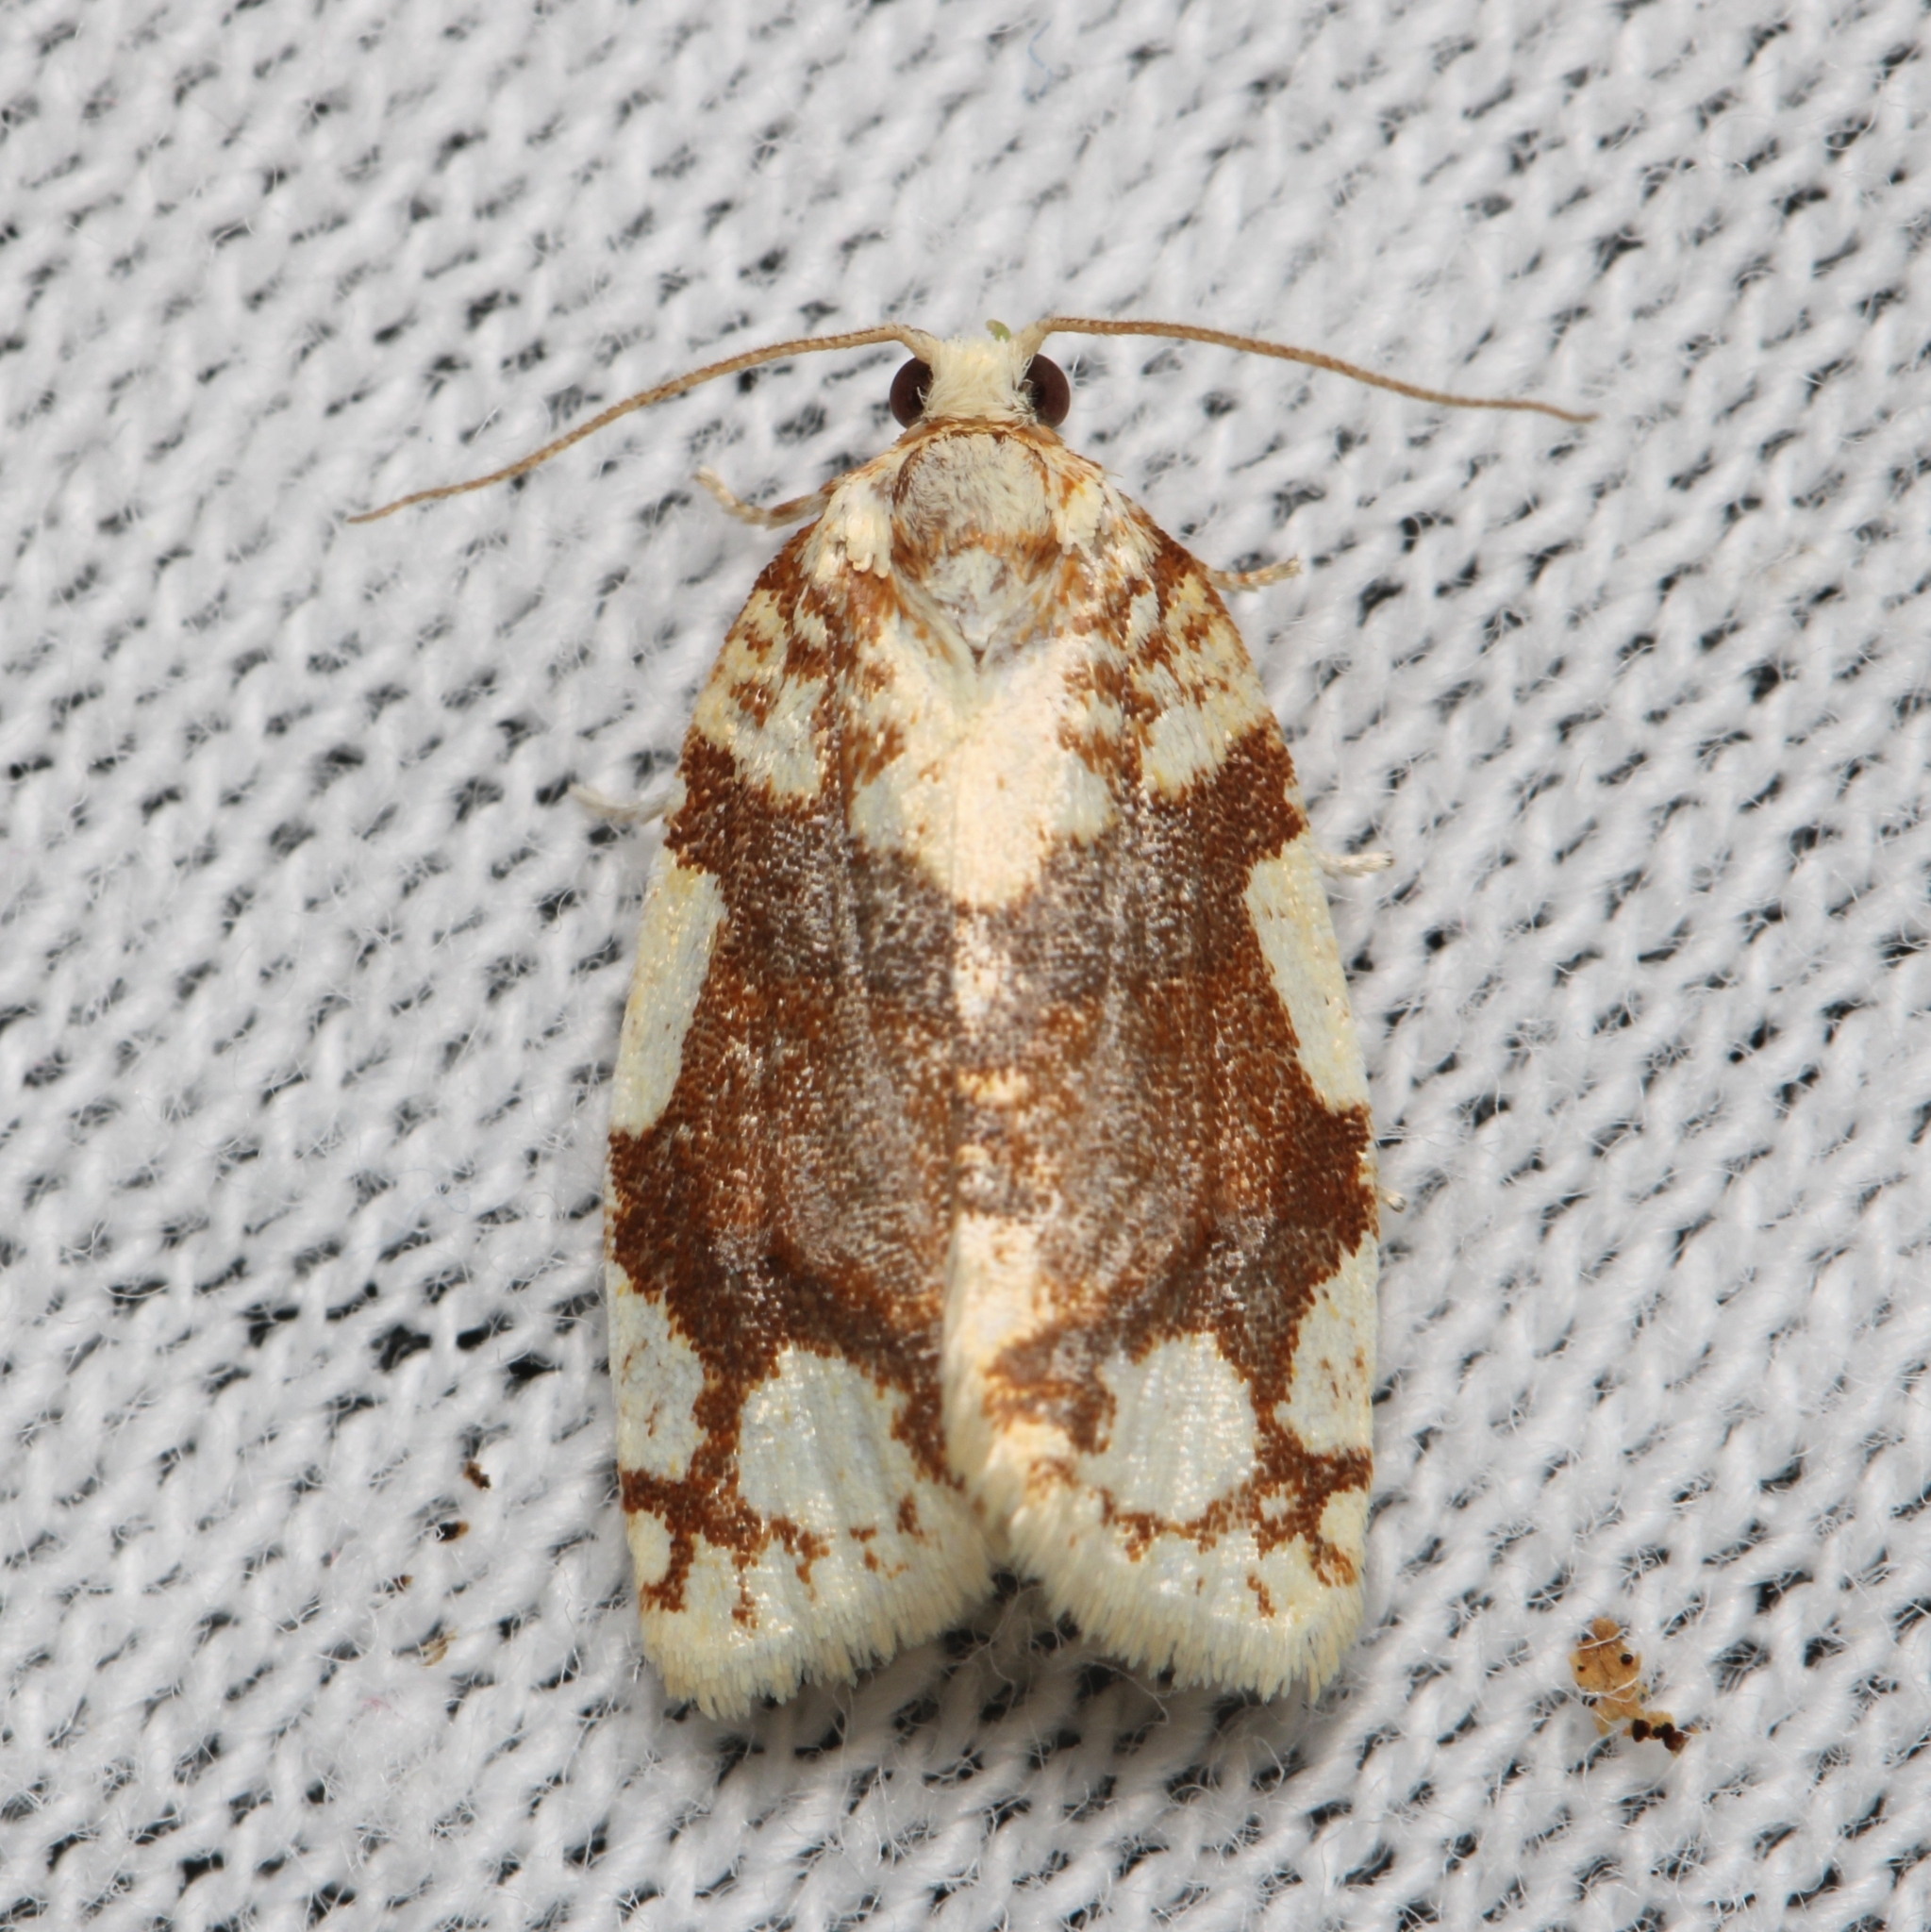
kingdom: Animalia
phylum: Arthropoda
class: Insecta
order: Lepidoptera
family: Tortricidae
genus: Argyrotaenia
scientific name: Argyrotaenia alisellana
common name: White-spotted leafroller moth
